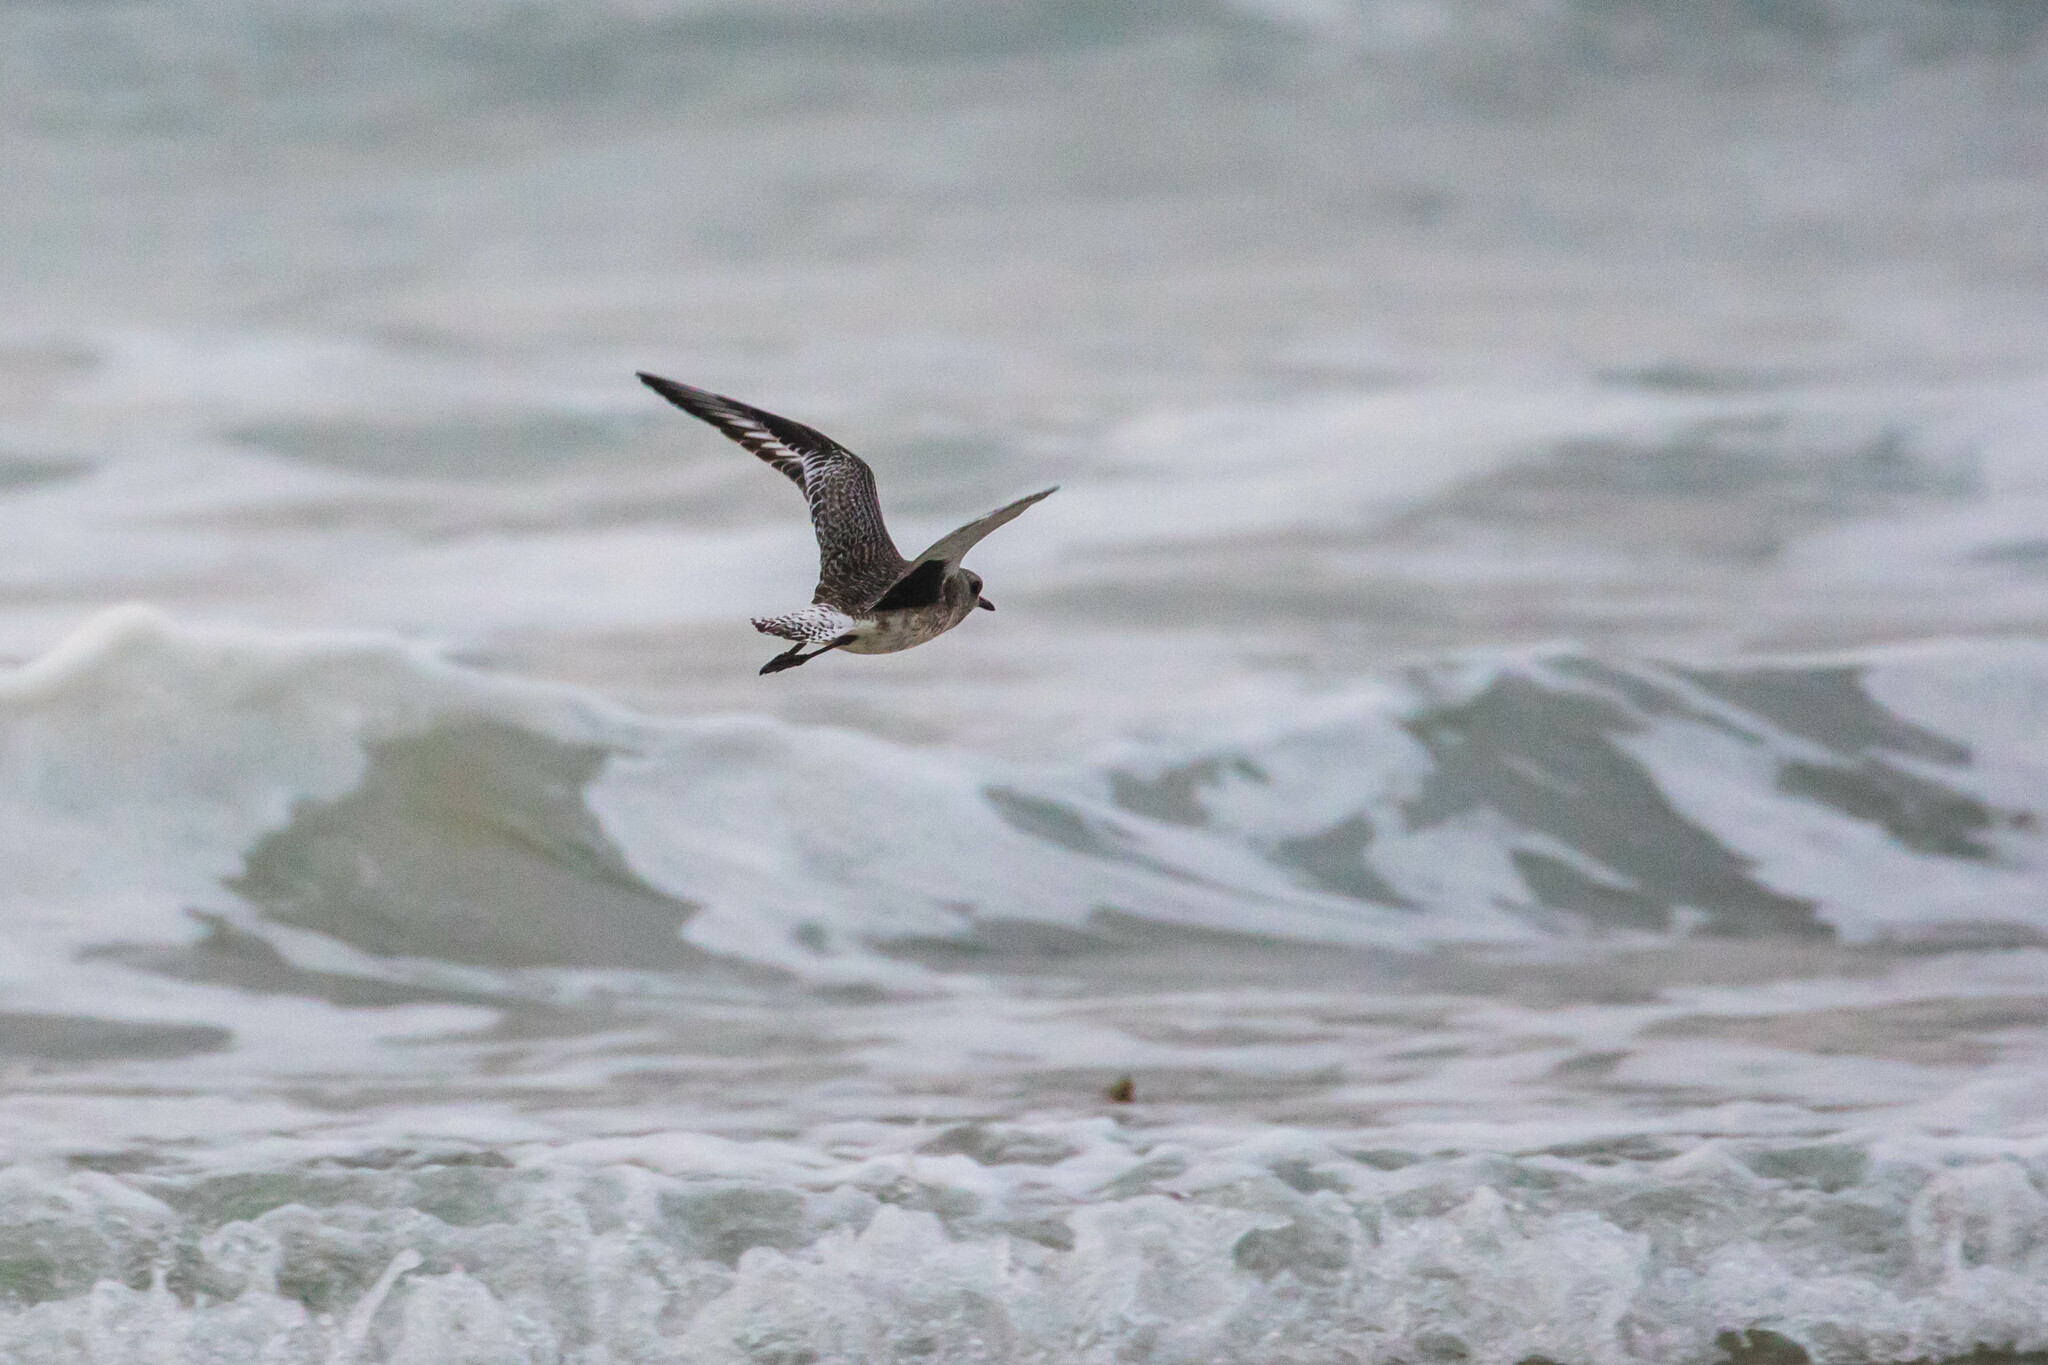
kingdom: Animalia
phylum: Chordata
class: Aves
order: Charadriiformes
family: Charadriidae
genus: Pluvialis
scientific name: Pluvialis squatarola
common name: Grey plover
